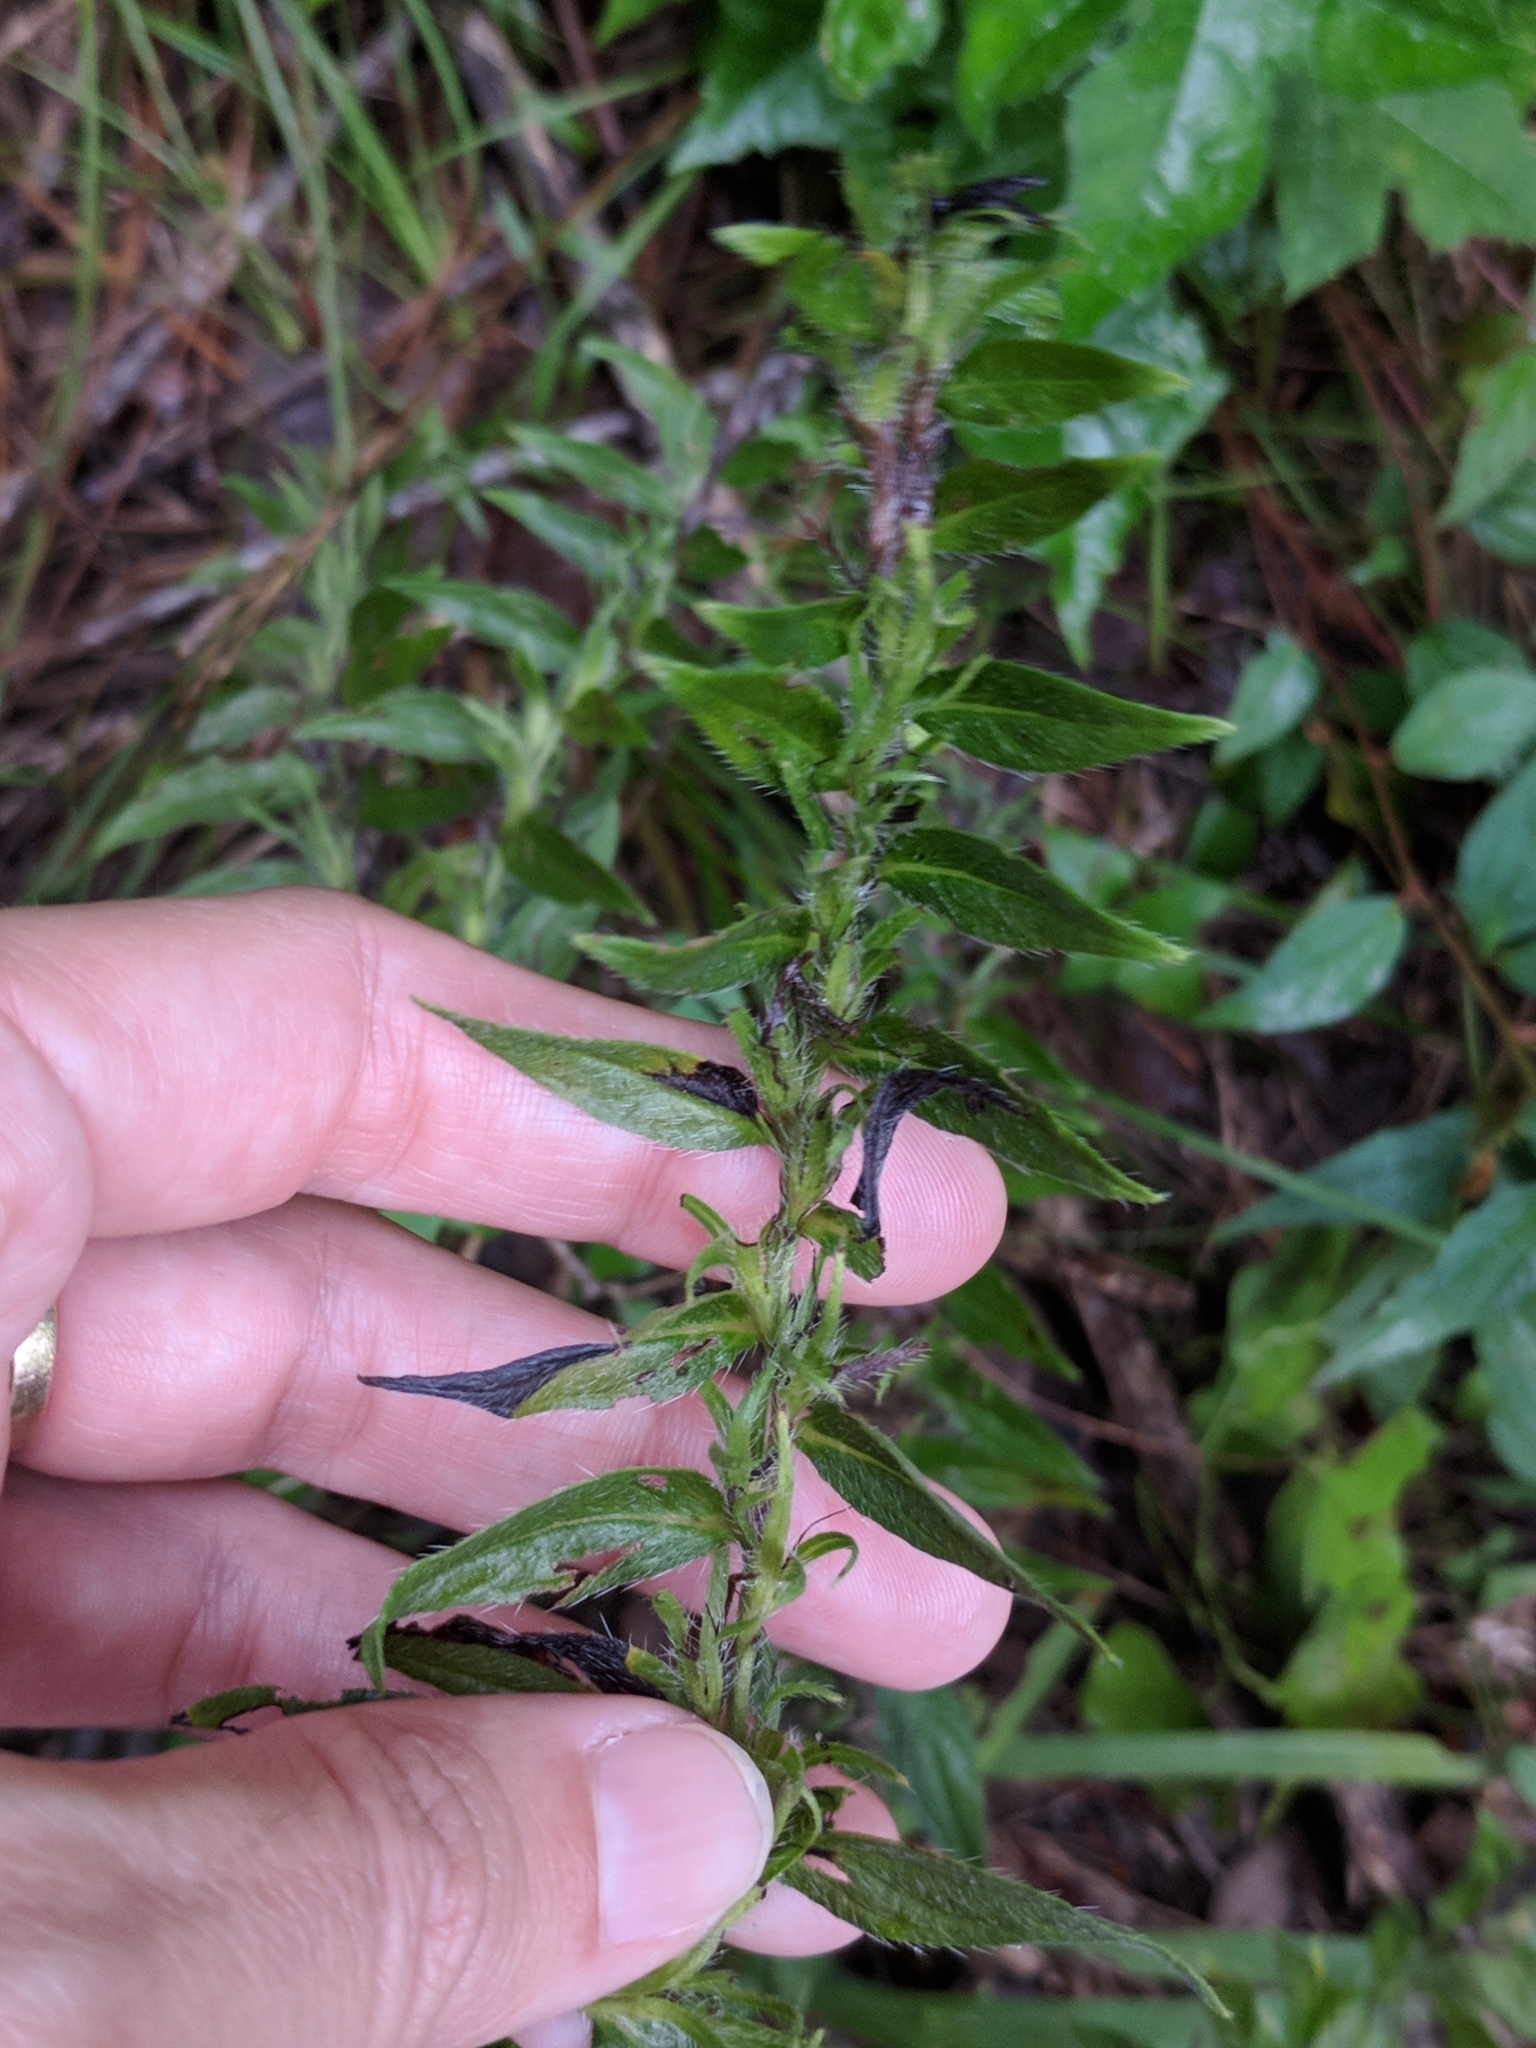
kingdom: Plantae
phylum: Tracheophyta
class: Magnoliopsida
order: Boraginales
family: Boraginaceae
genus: Lithospermum
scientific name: Lithospermum caroliniense
